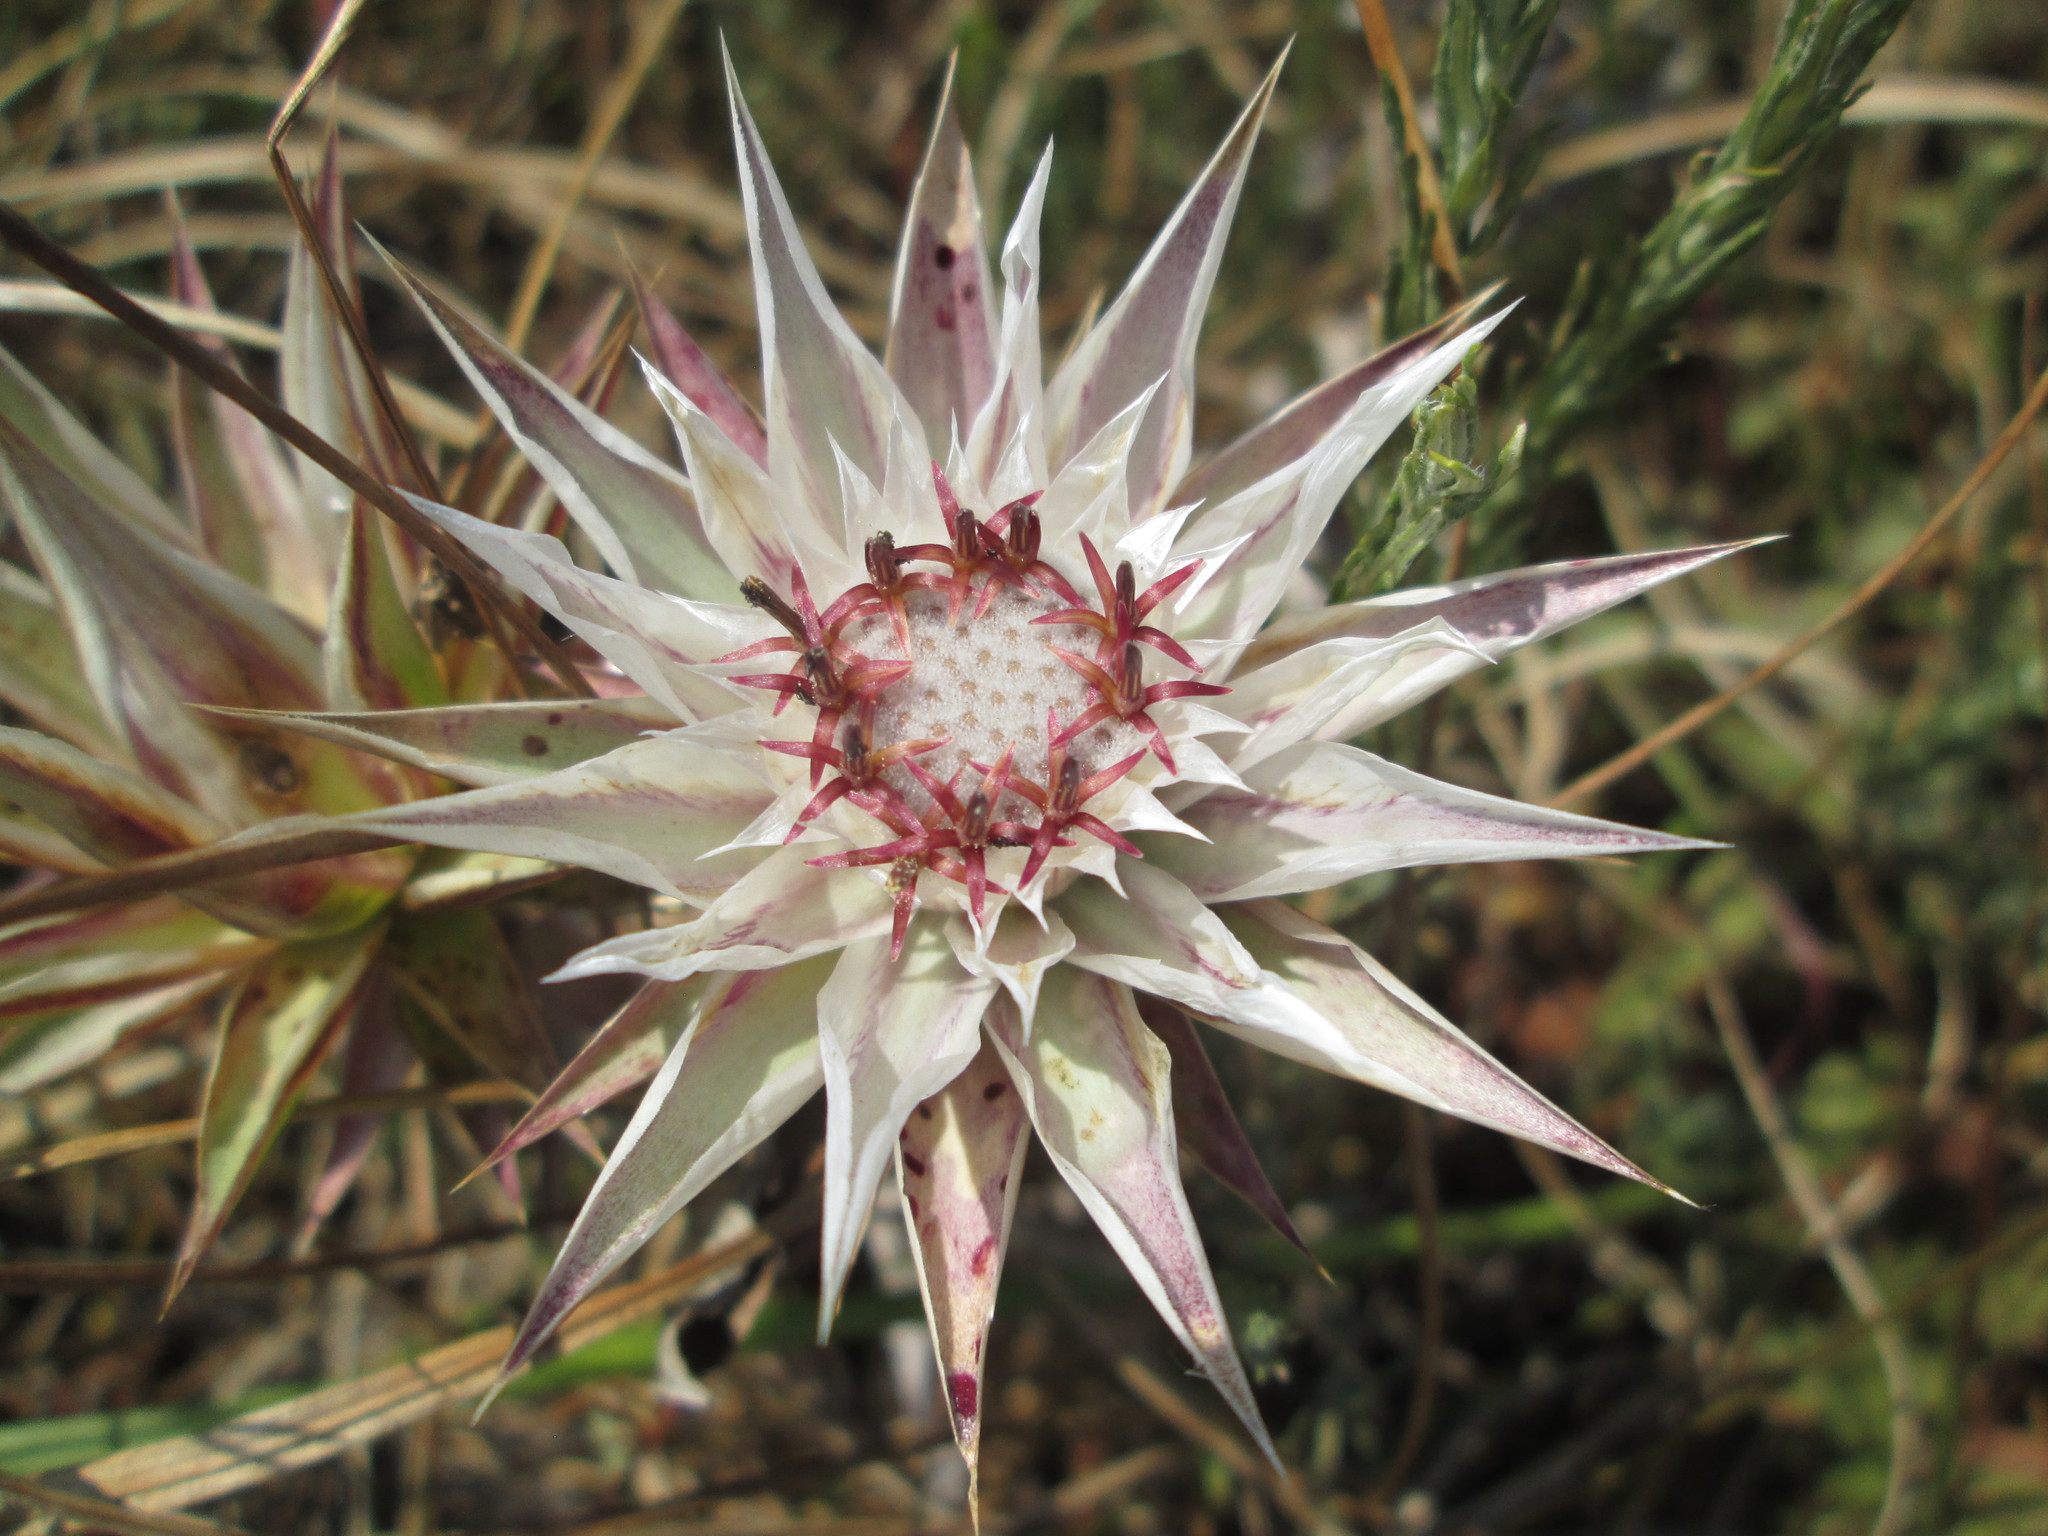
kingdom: Plantae
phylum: Tracheophyta
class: Magnoliopsida
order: Asterales
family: Asteraceae
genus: Macledium
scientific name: Macledium zeyheri
